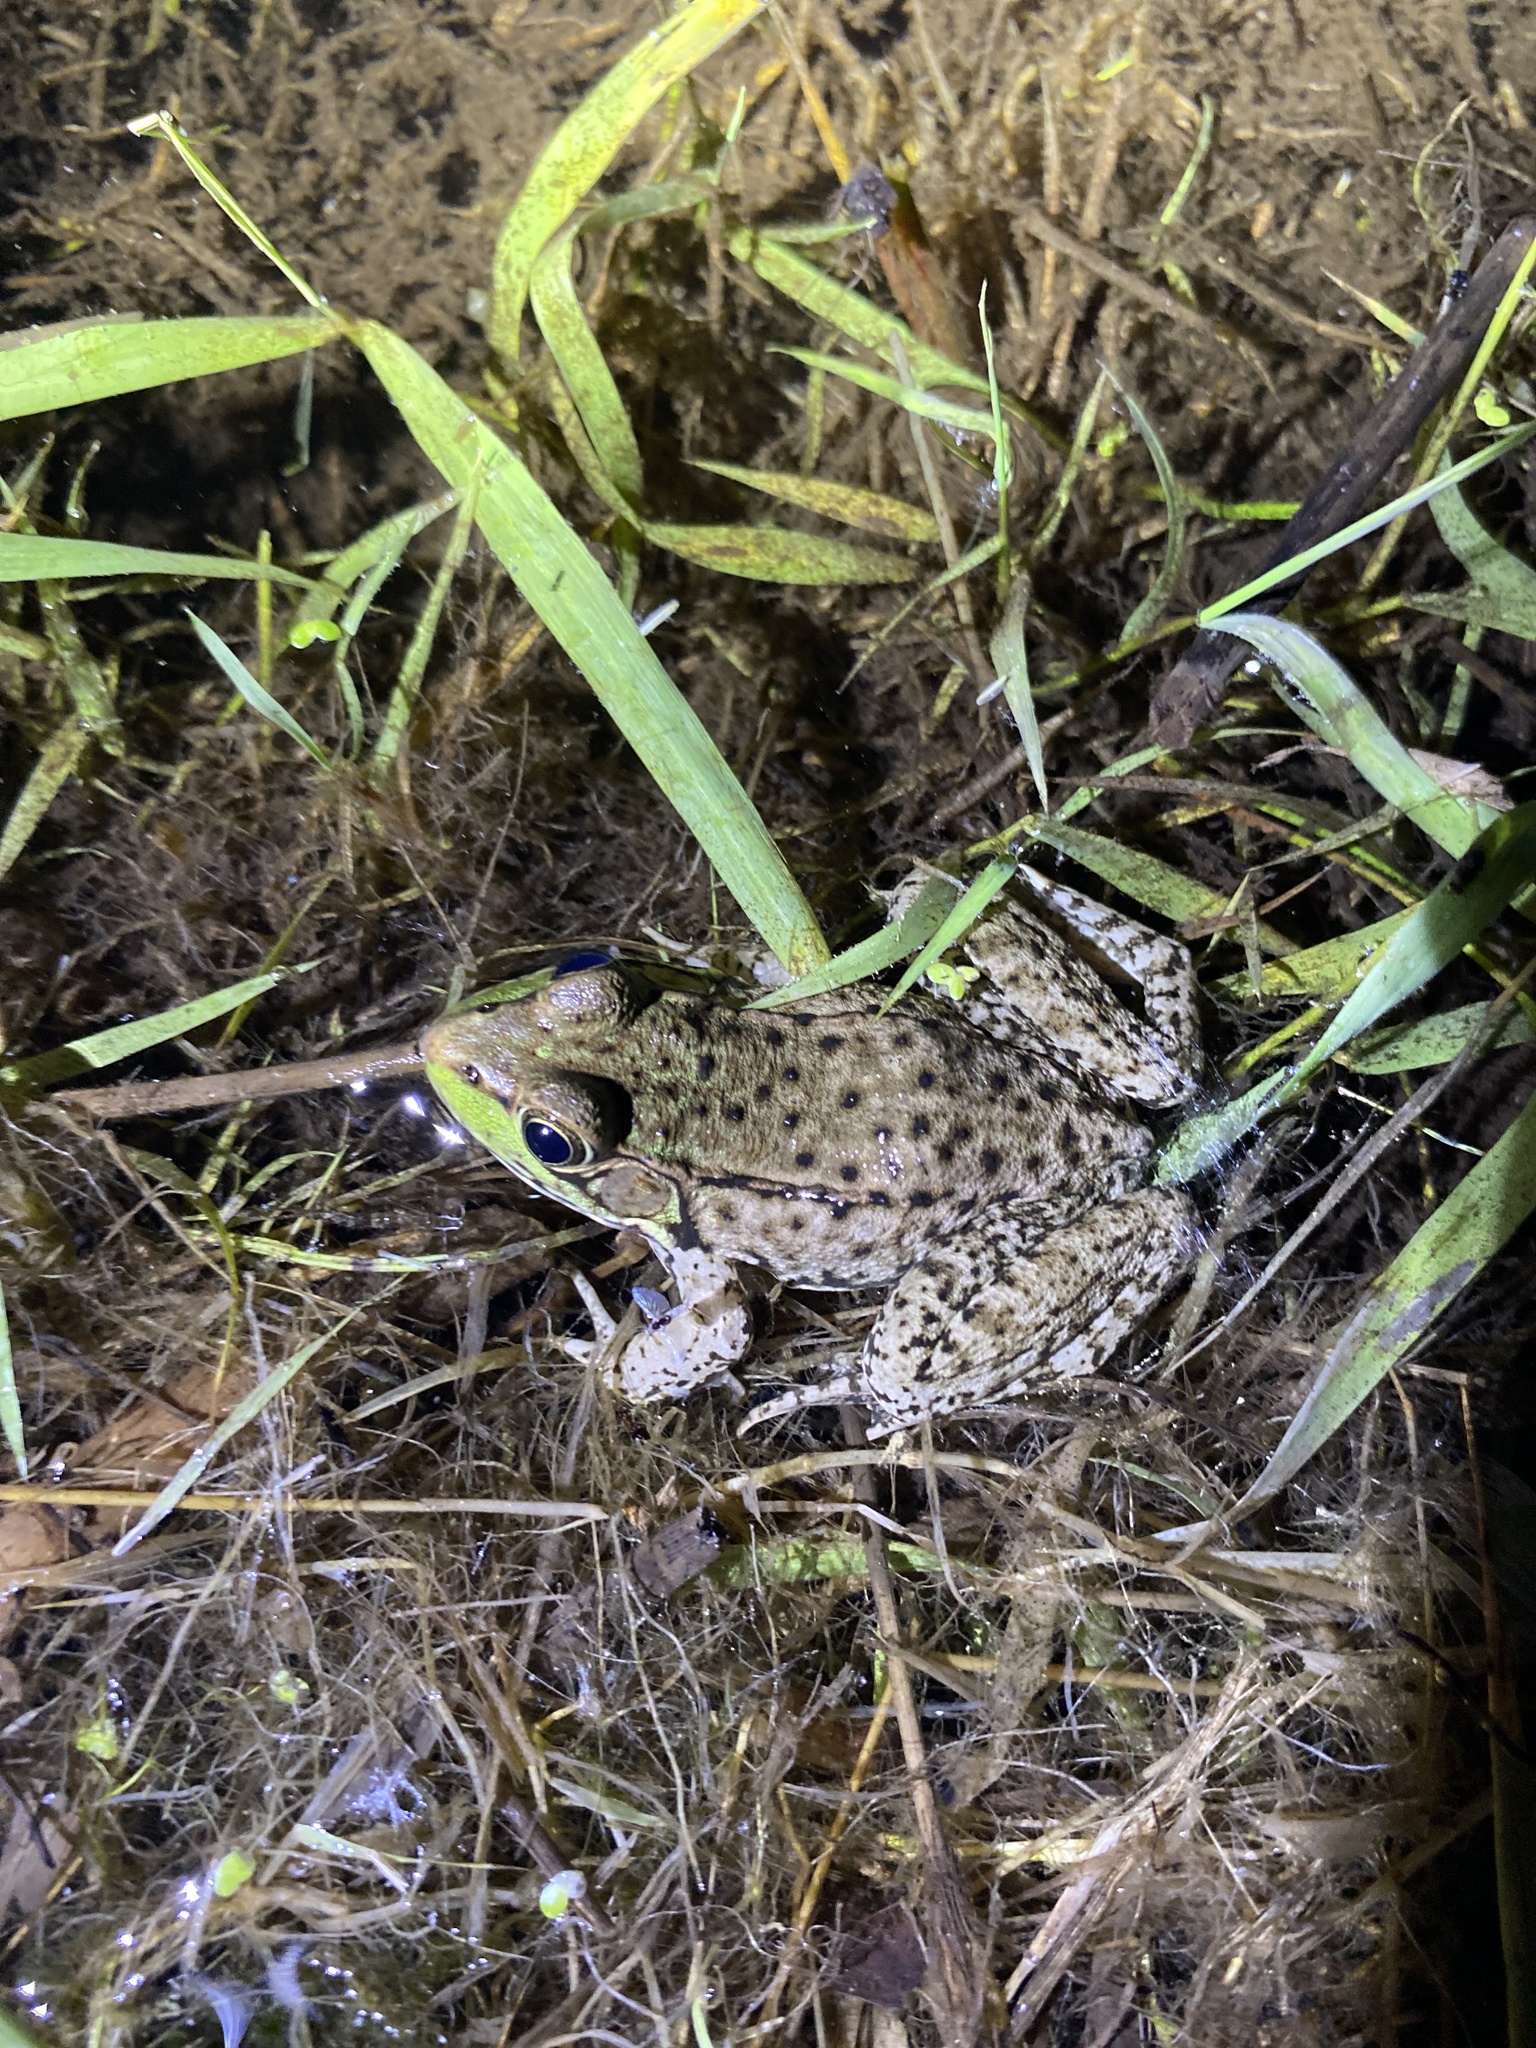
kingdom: Animalia
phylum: Chordata
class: Amphibia
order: Anura
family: Ranidae
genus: Lithobates
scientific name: Lithobates clamitans
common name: Green frog
